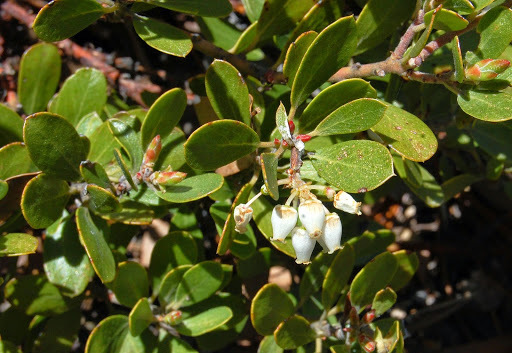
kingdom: Plantae
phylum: Tracheophyta
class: Magnoliopsida
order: Ericales
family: Ericaceae
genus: Arctostaphylos
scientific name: Arctostaphylos nevadensis
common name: Pinemat manzanita
